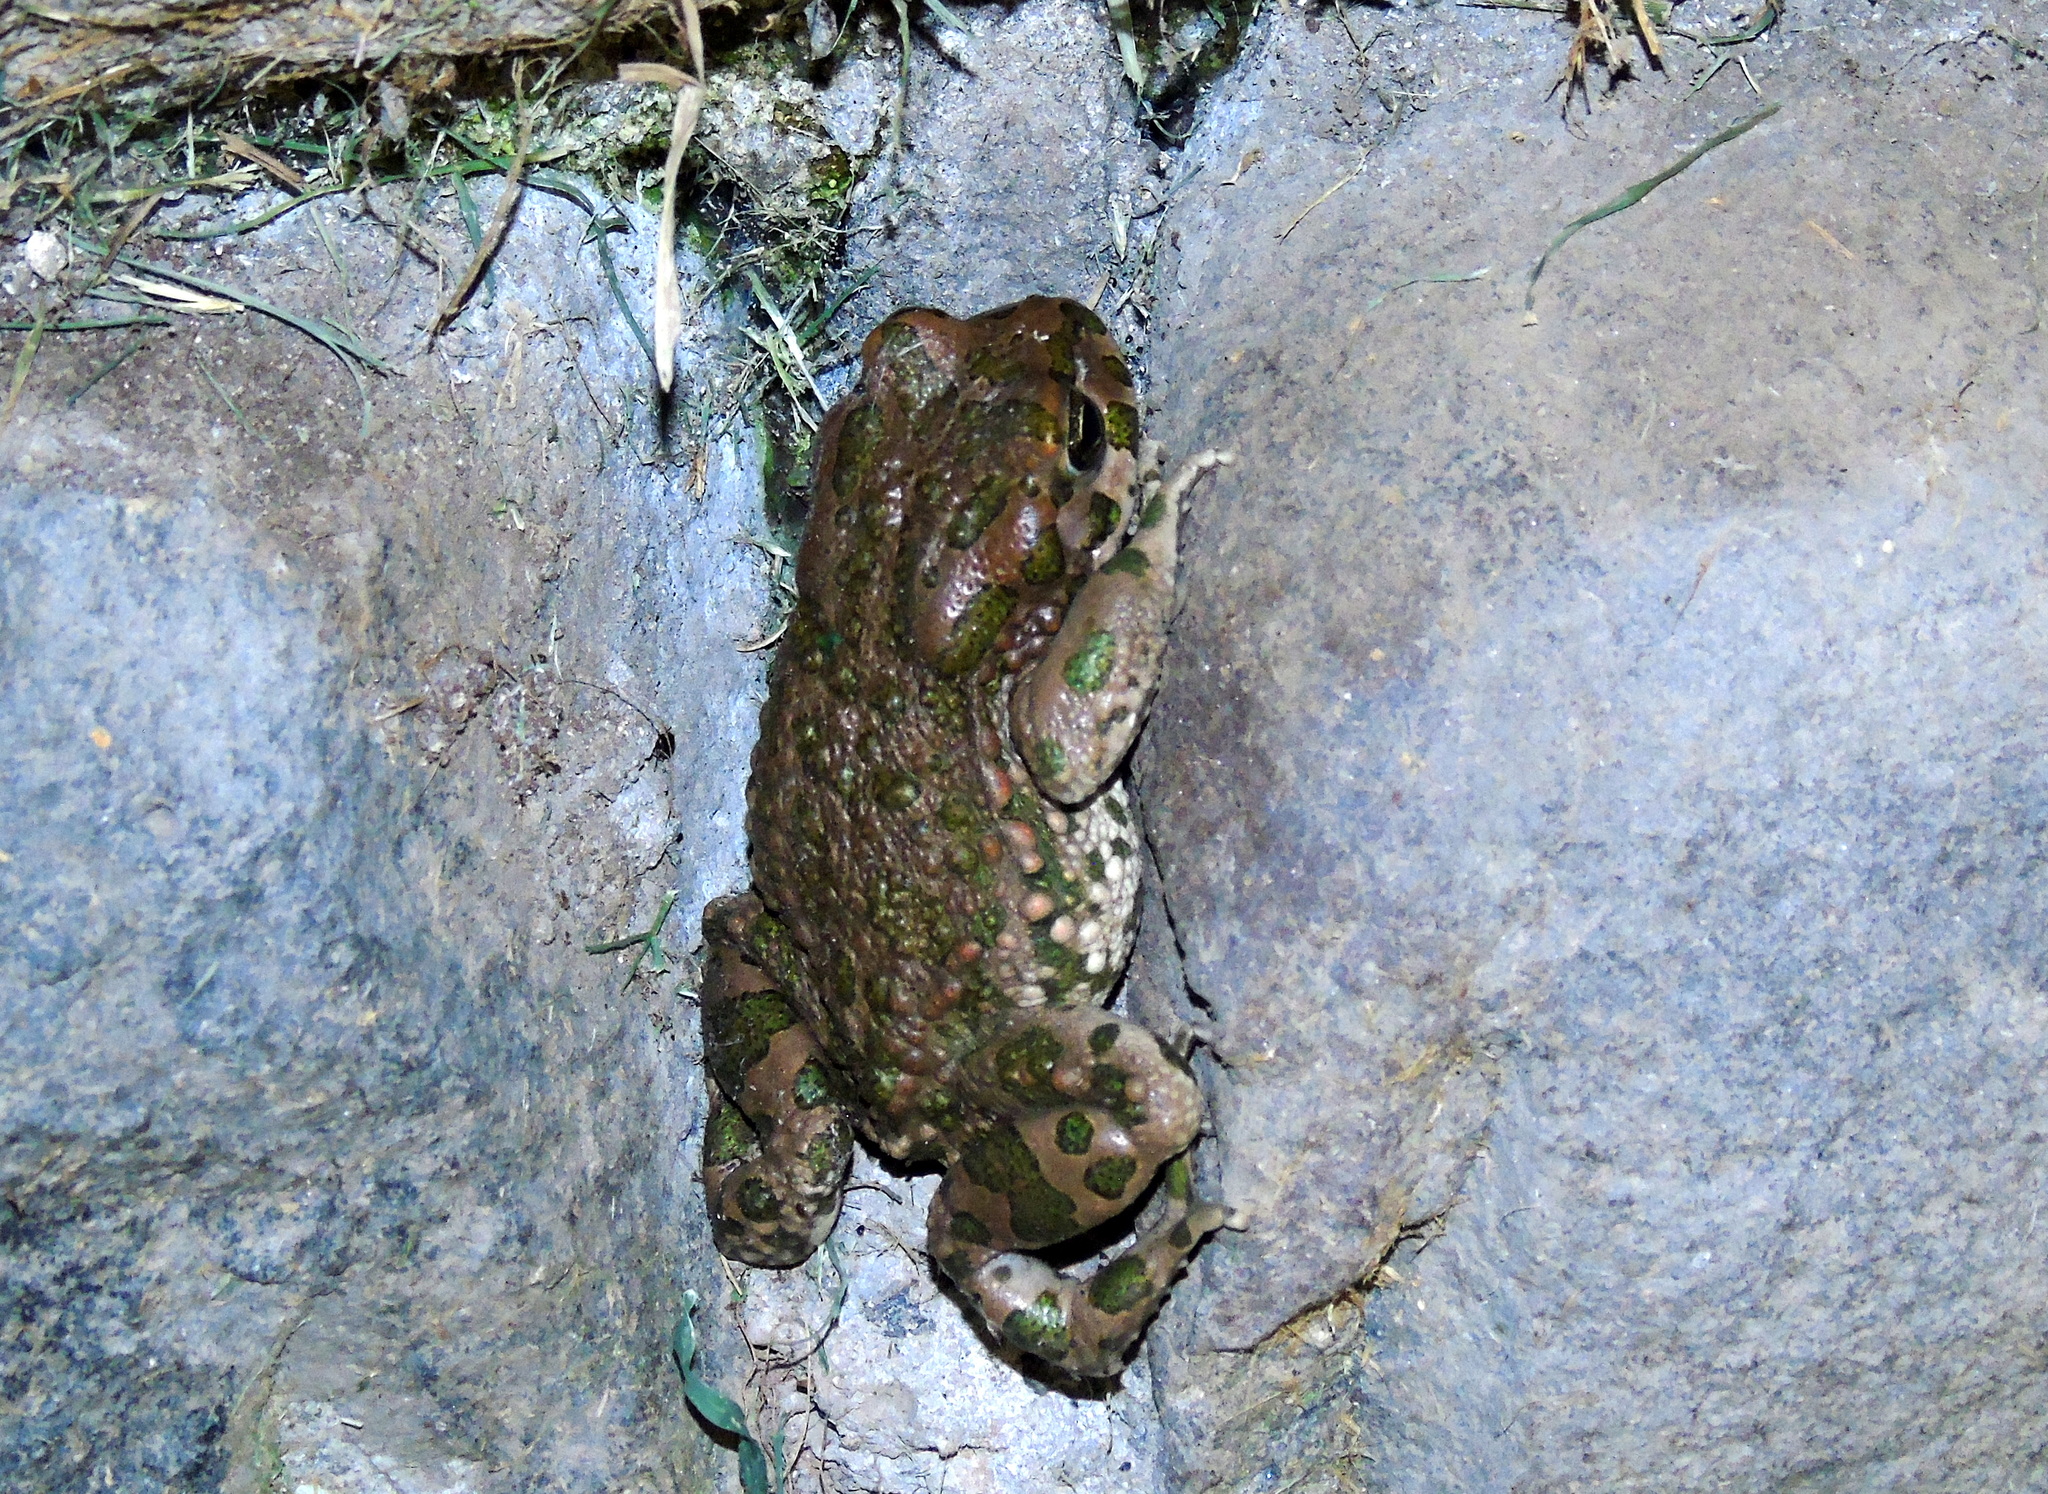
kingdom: Animalia
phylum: Chordata
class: Amphibia
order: Anura
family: Bufonidae
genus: Bufotes
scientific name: Bufotes viridis
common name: European green toad
